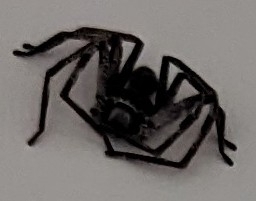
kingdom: Animalia
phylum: Arthropoda
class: Arachnida
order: Araneae
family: Sparassidae
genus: Isopedella
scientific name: Isopedella victorialis
